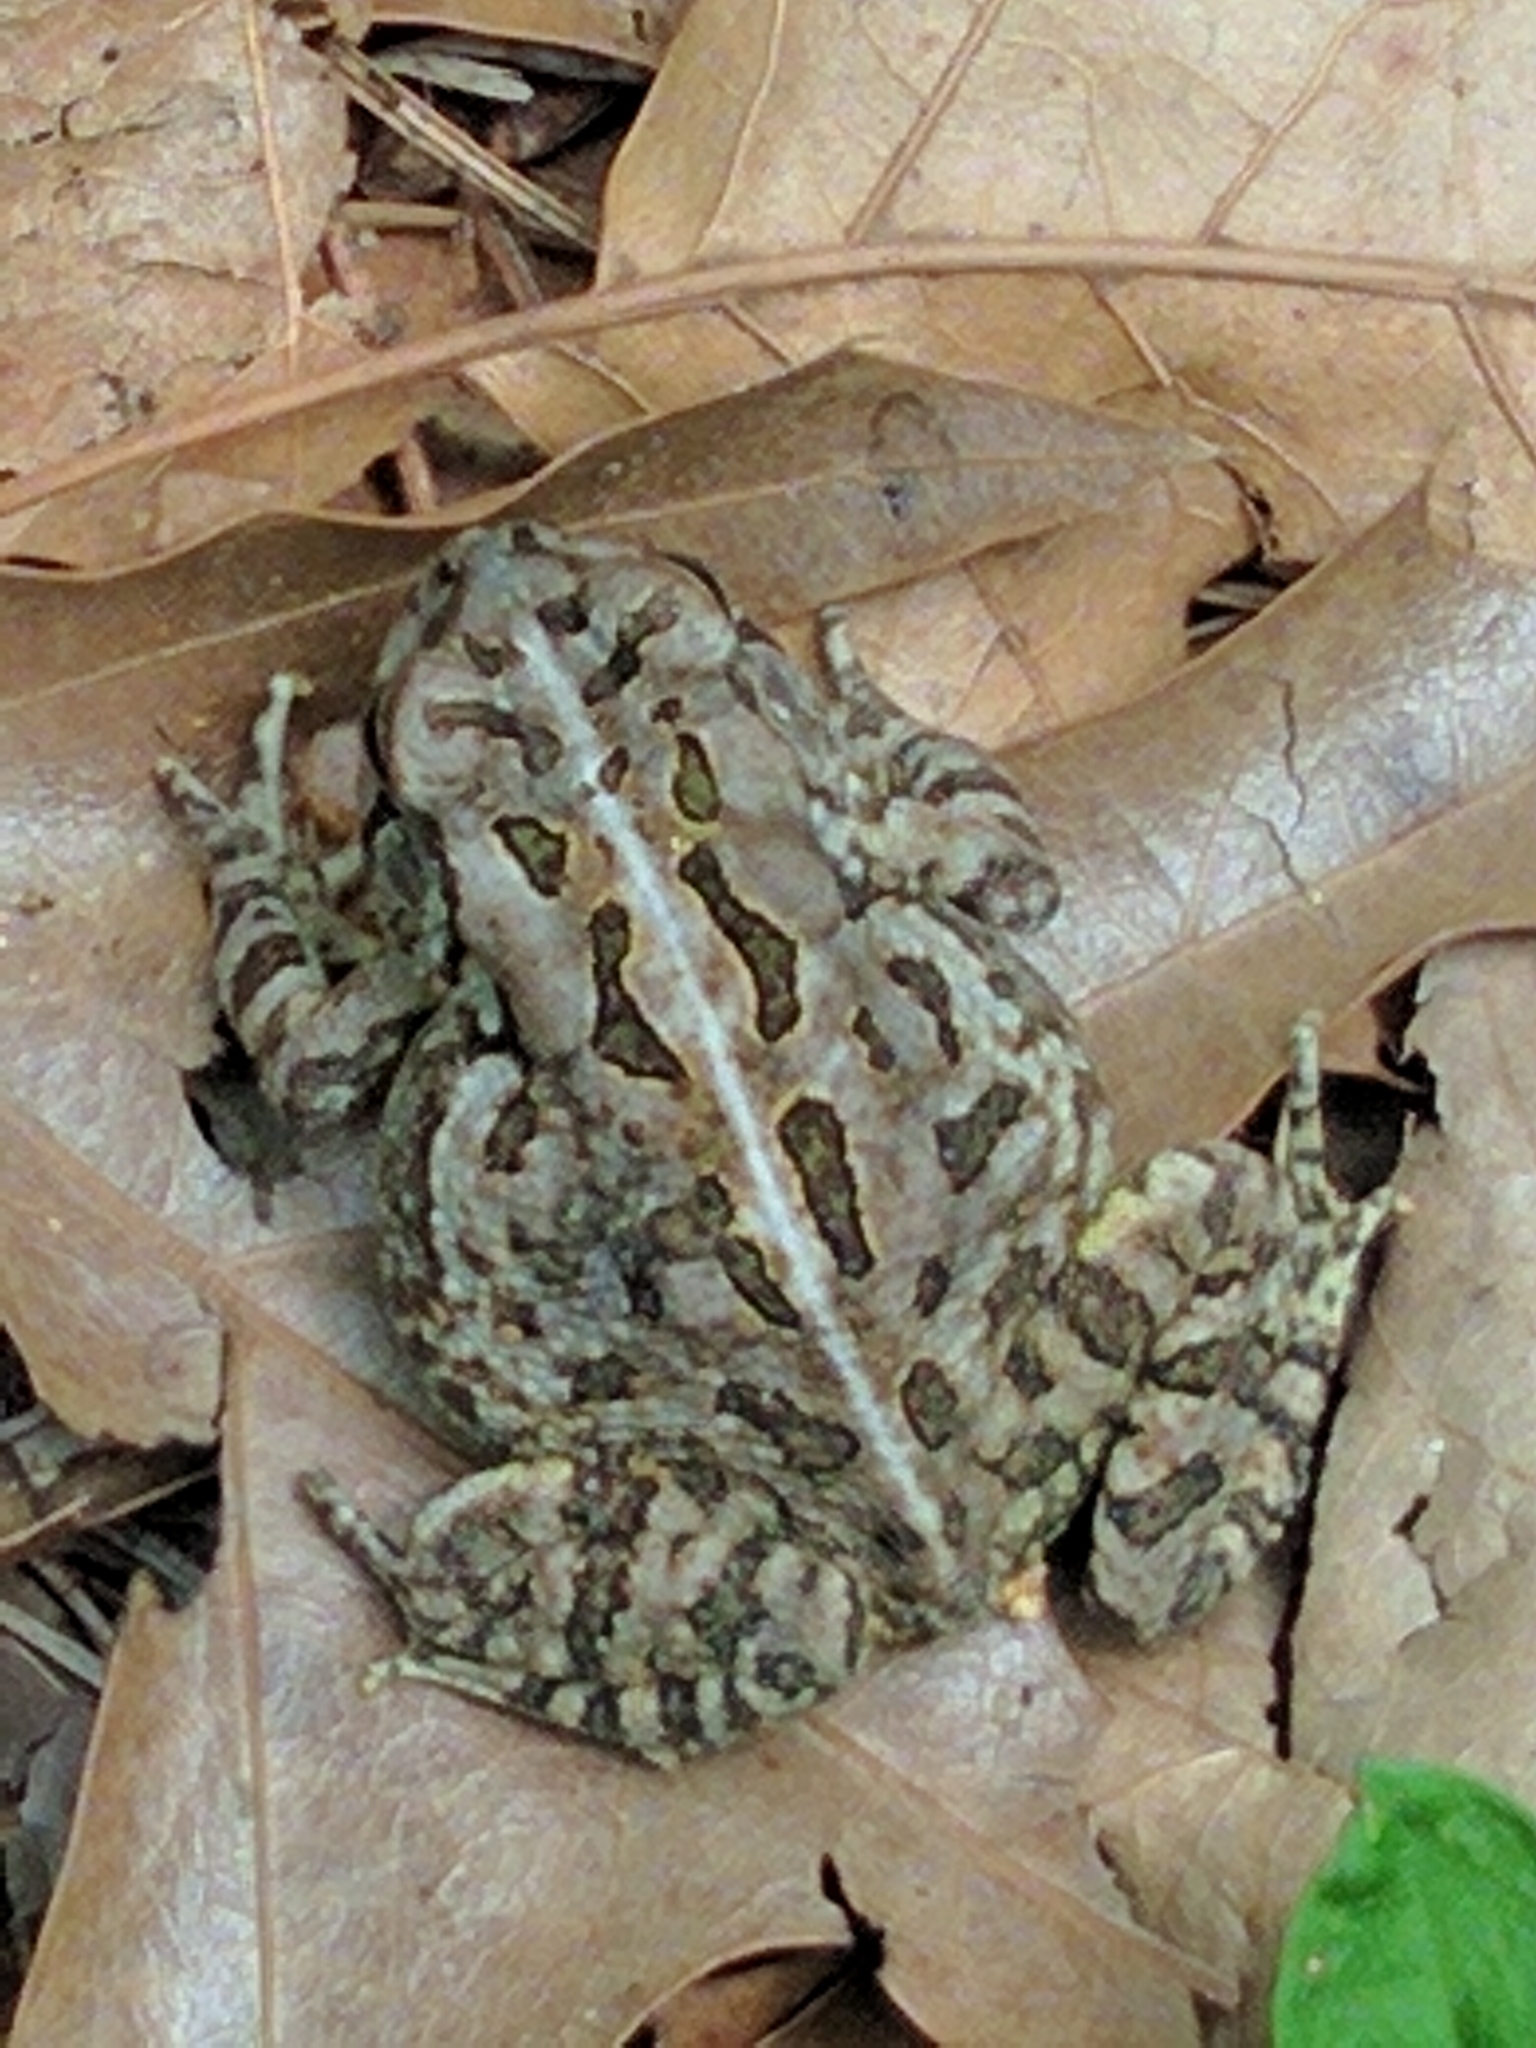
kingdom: Animalia
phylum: Chordata
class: Amphibia
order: Anura
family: Bufonidae
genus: Anaxyrus
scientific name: Anaxyrus fowleri
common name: Fowler's toad
